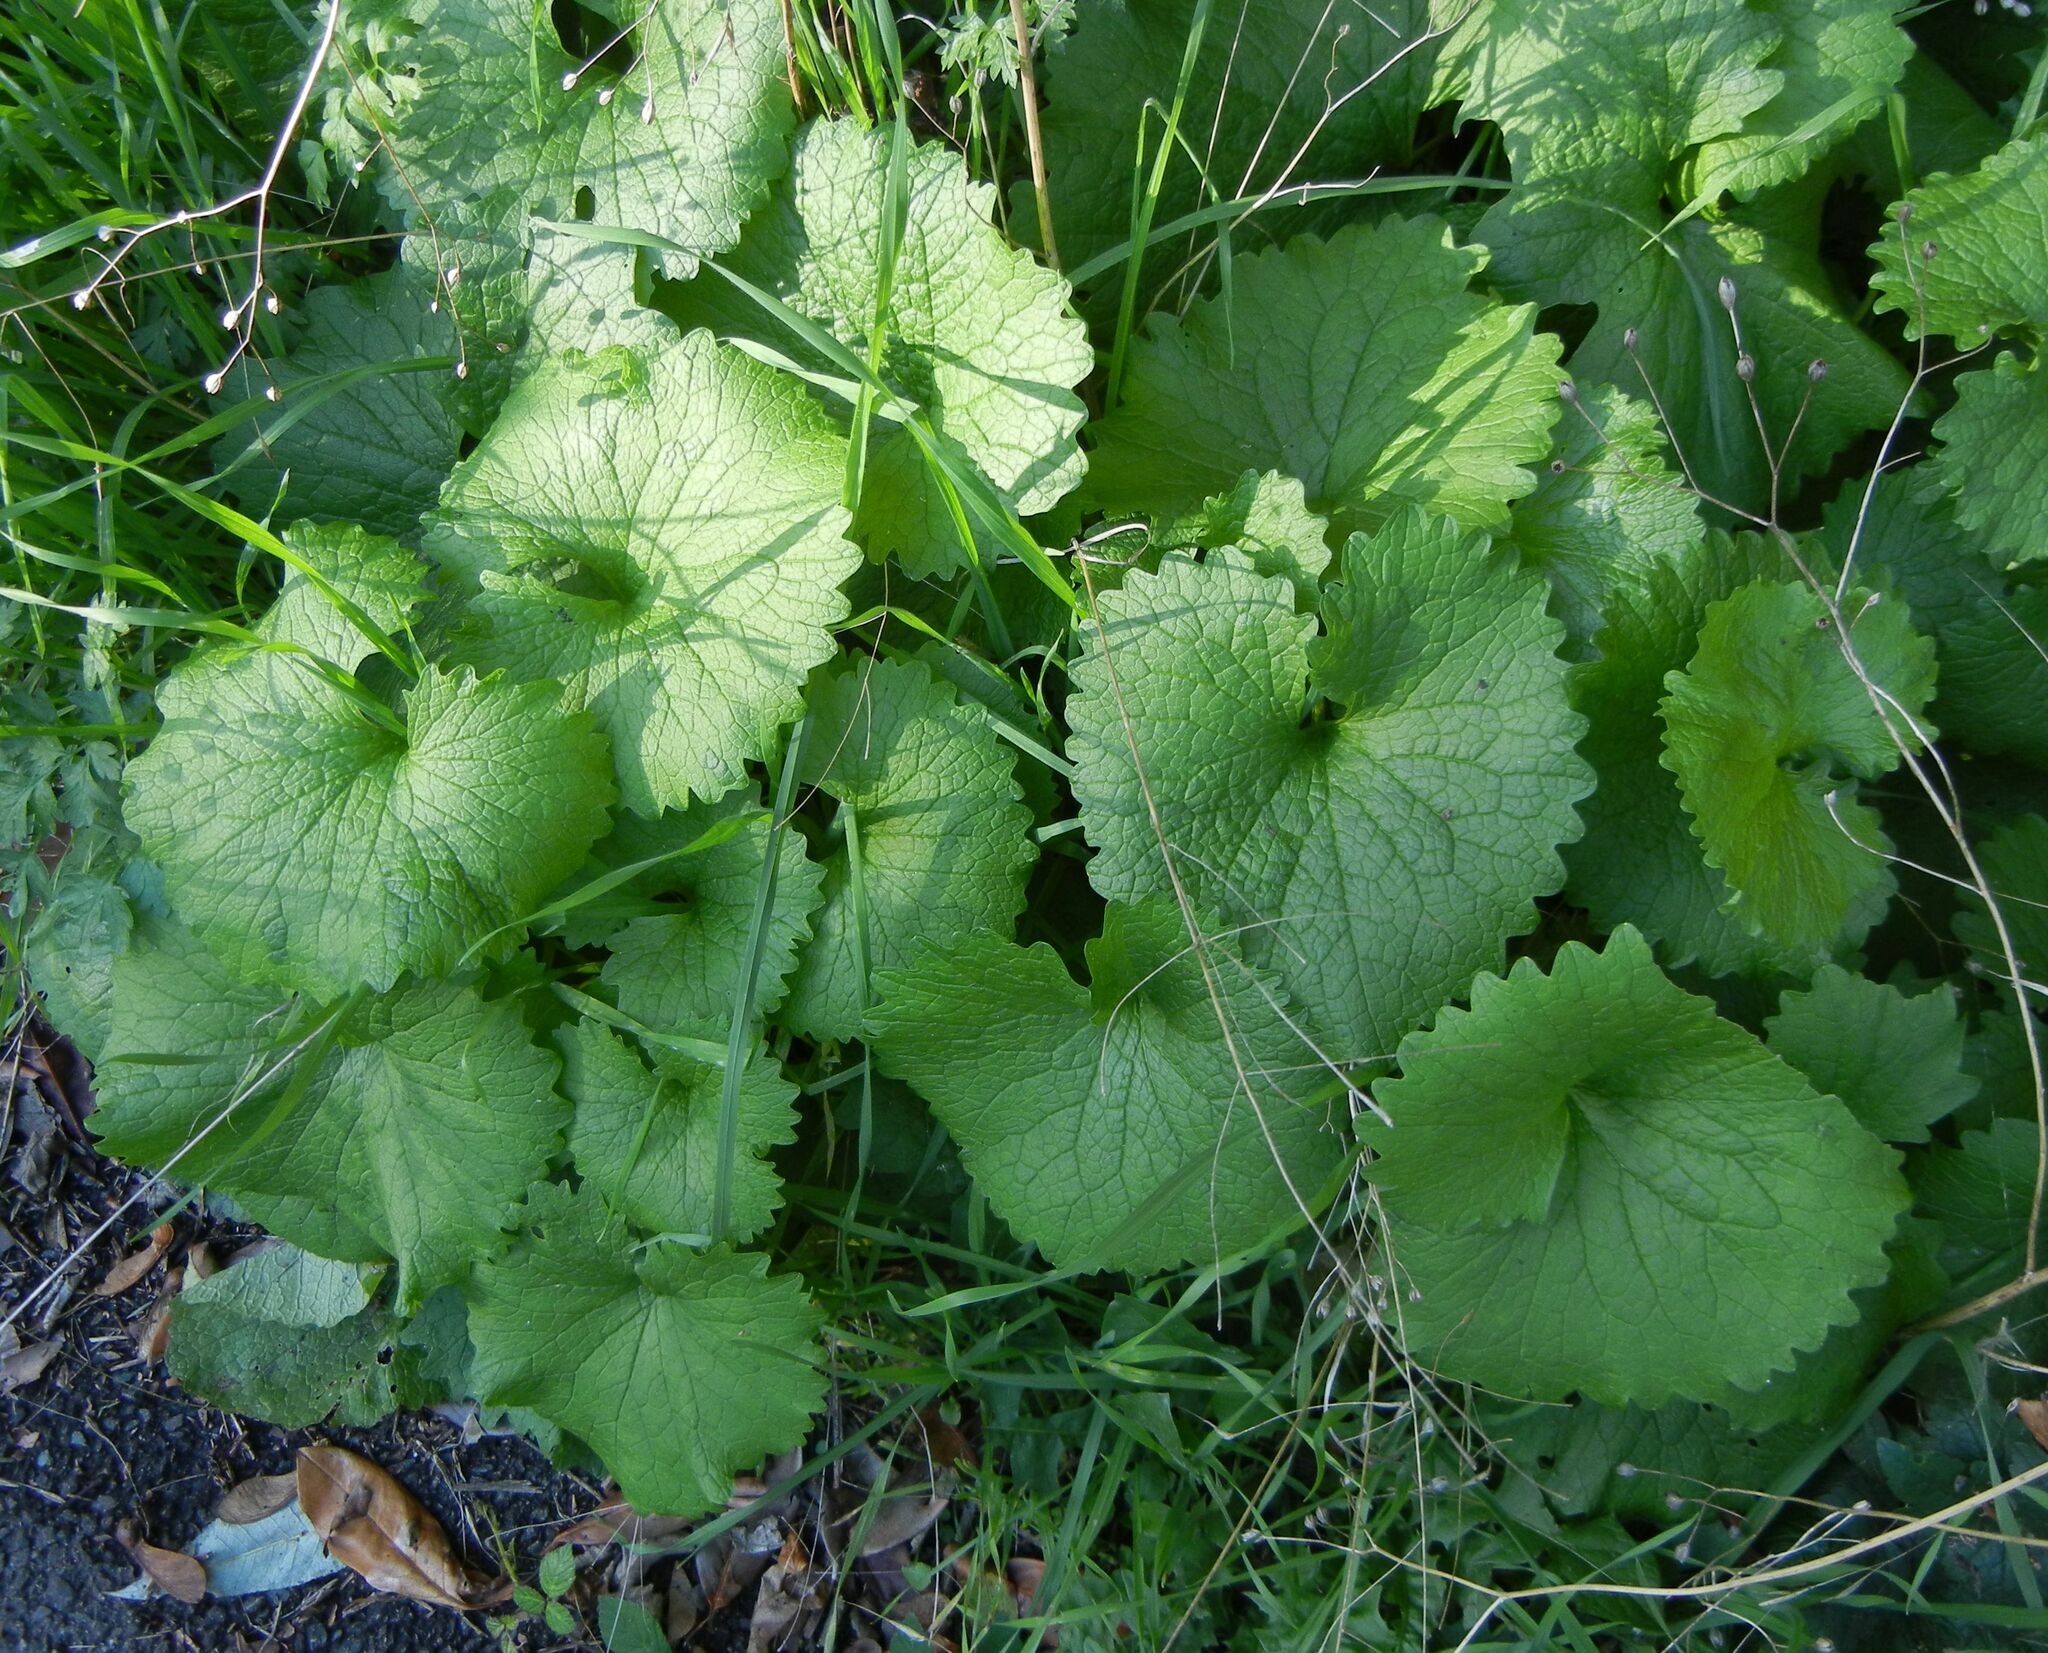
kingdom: Plantae
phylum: Tracheophyta
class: Magnoliopsida
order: Brassicales
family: Brassicaceae
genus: Alliaria
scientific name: Alliaria petiolata
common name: Garlic mustard
